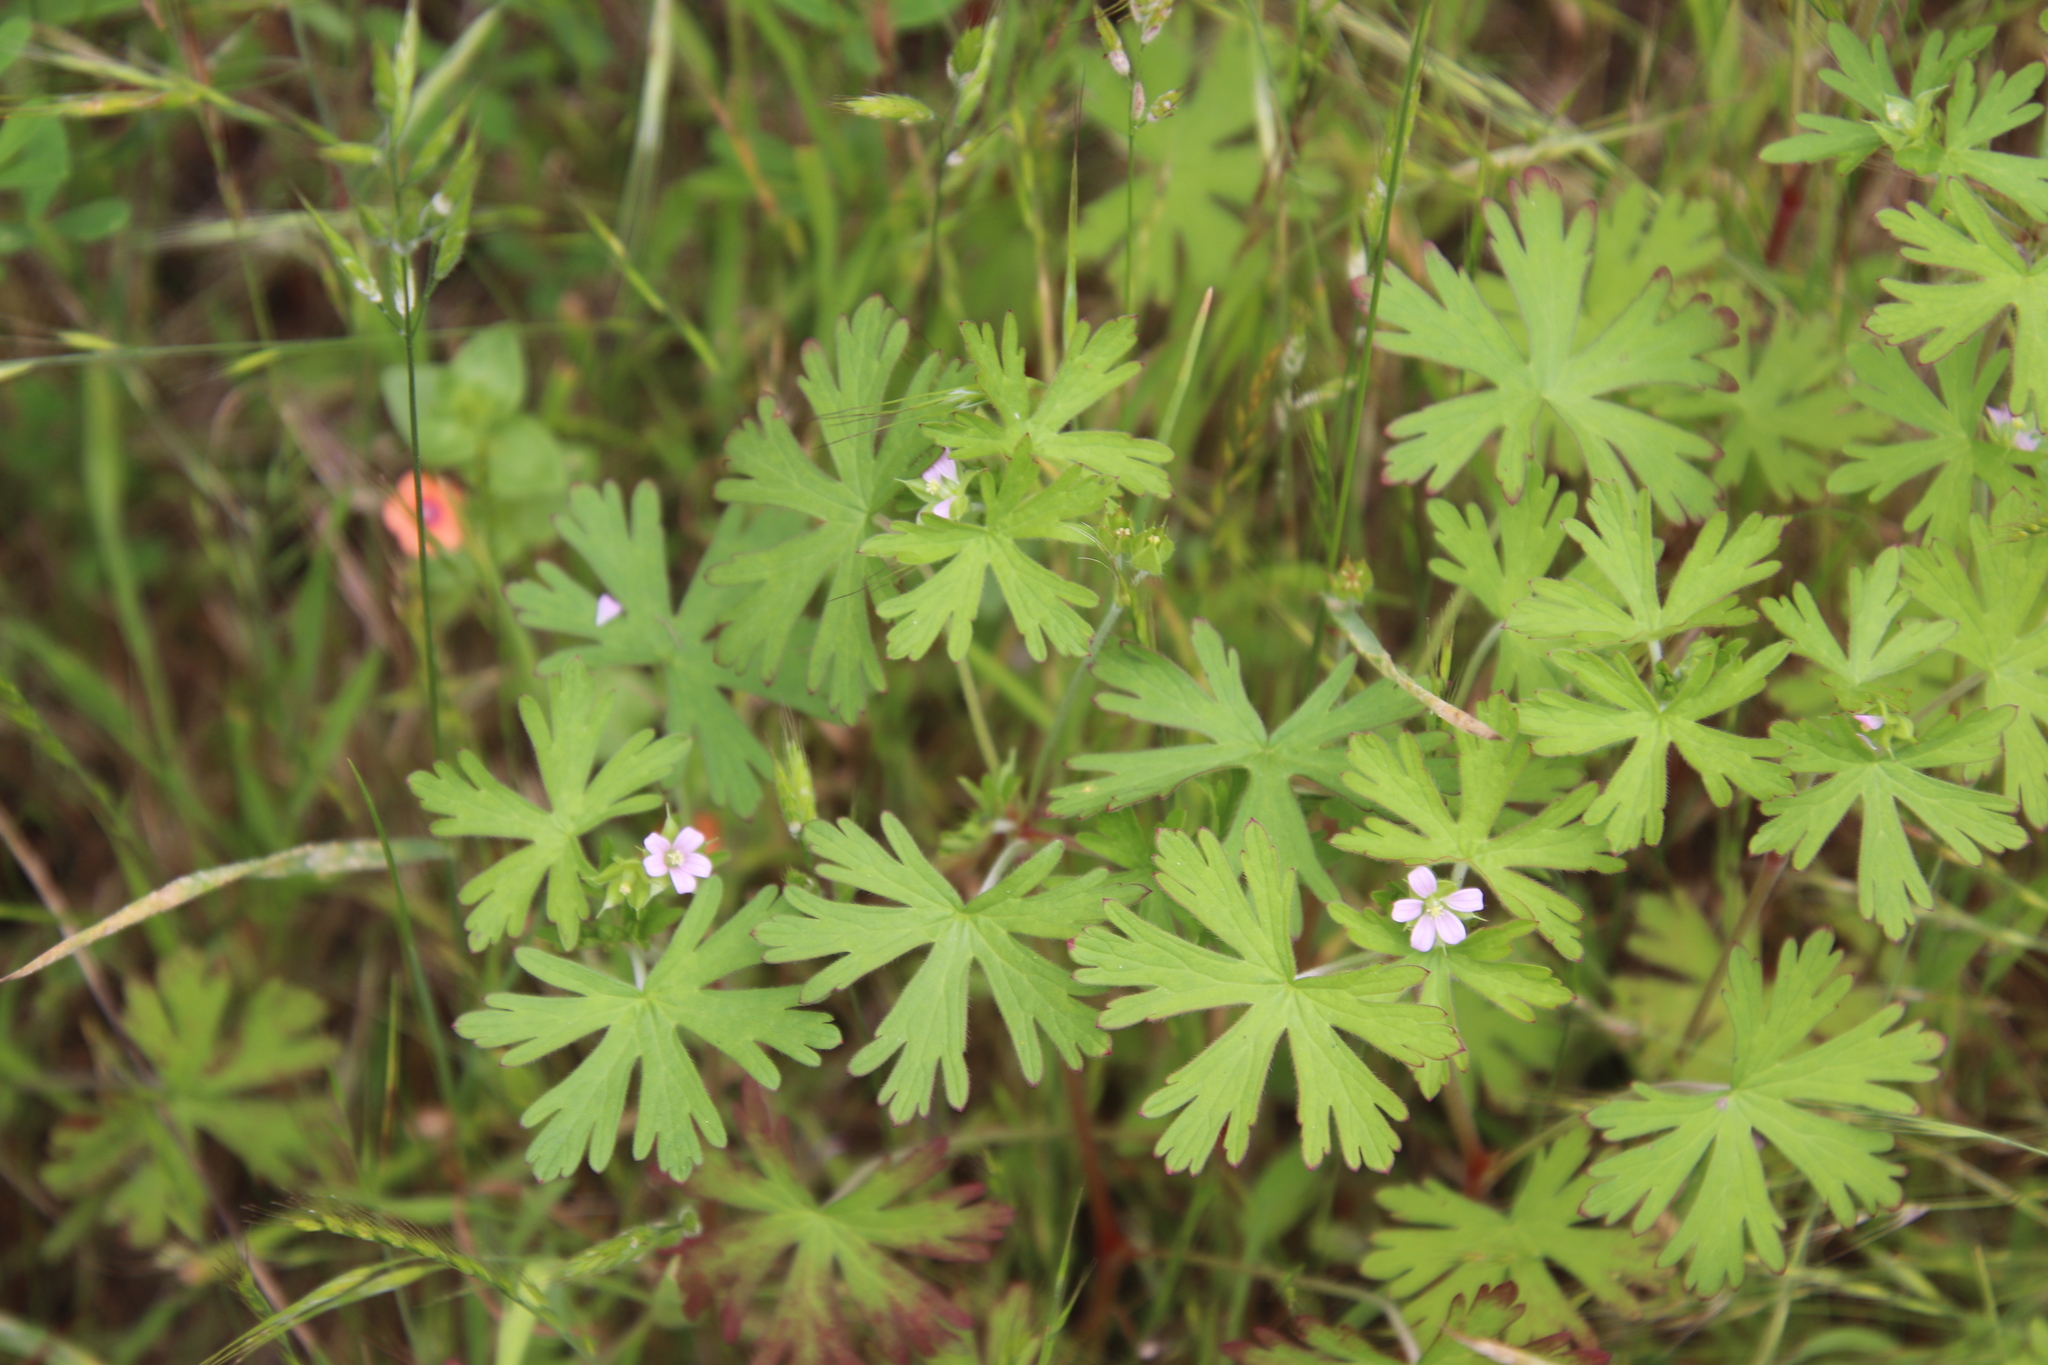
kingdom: Plantae
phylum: Tracheophyta
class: Magnoliopsida
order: Geraniales
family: Geraniaceae
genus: Geranium
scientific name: Geranium carolinianum
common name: Carolina crane's-bill
